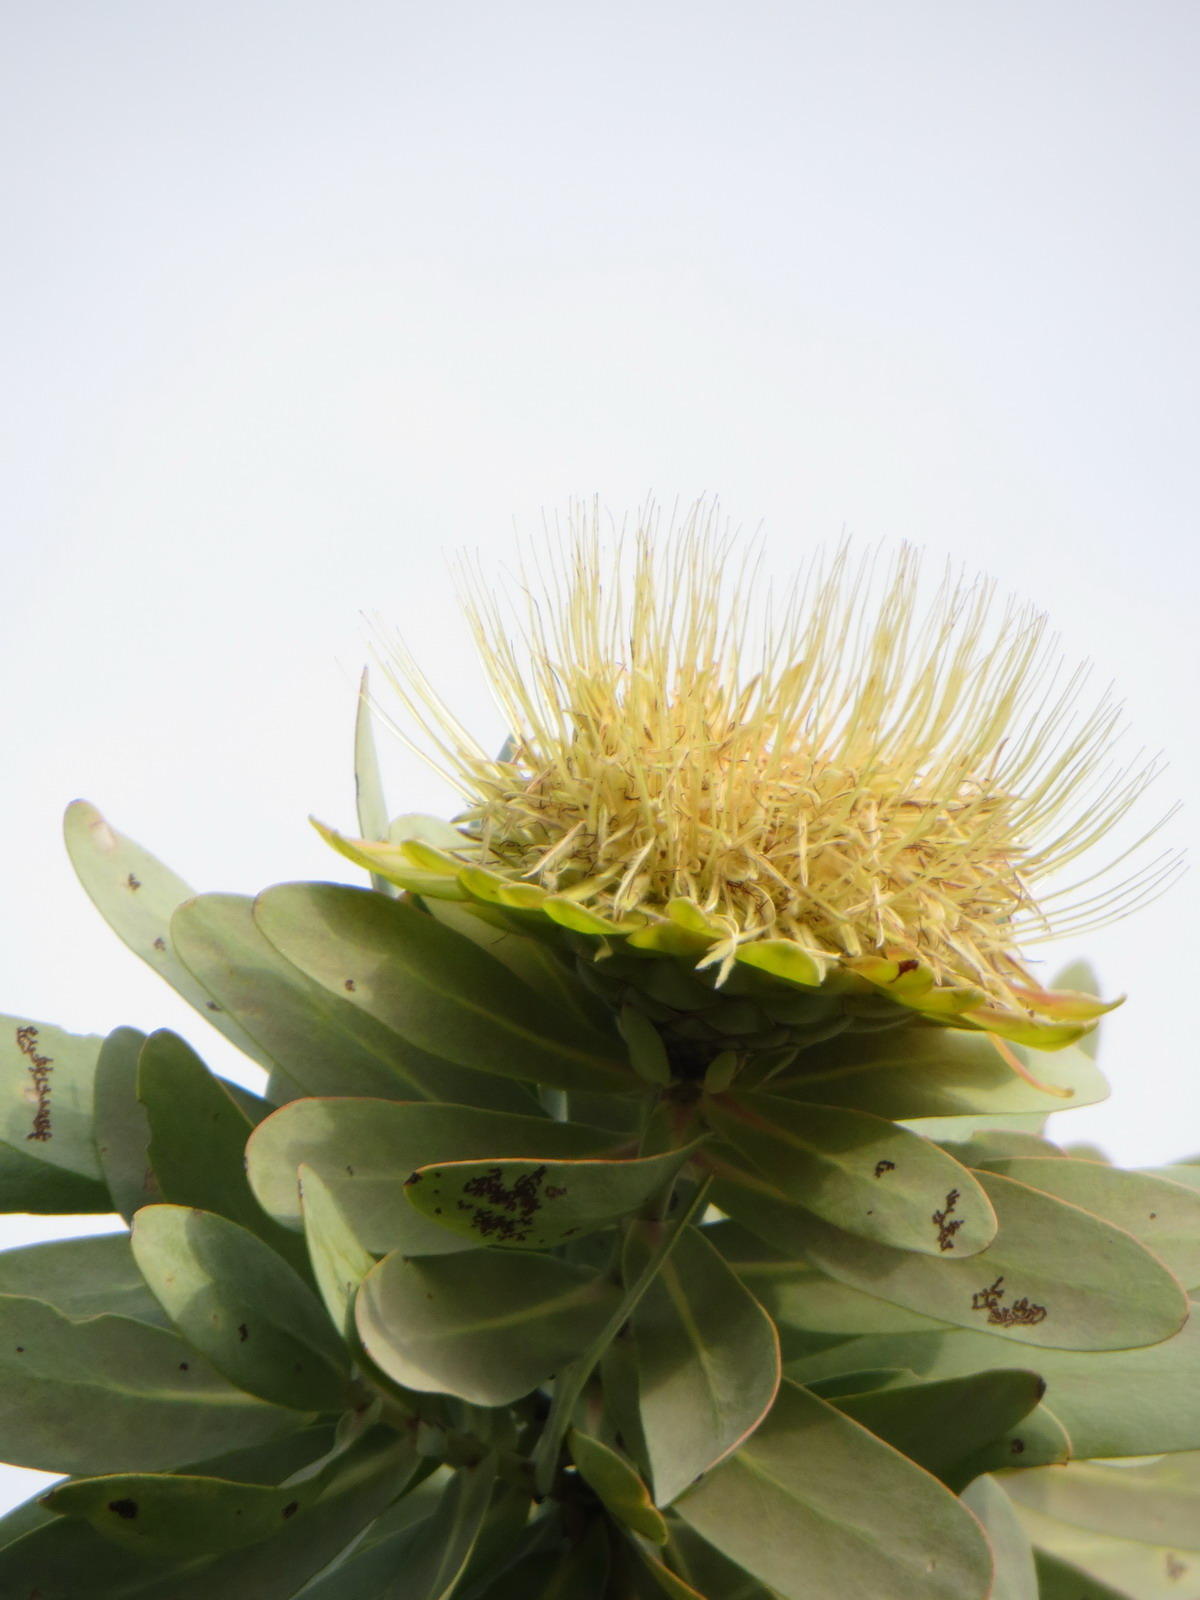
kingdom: Plantae
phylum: Tracheophyta
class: Magnoliopsida
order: Proteales
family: Proteaceae
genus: Protea
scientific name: Protea nitida
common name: Tree protea
